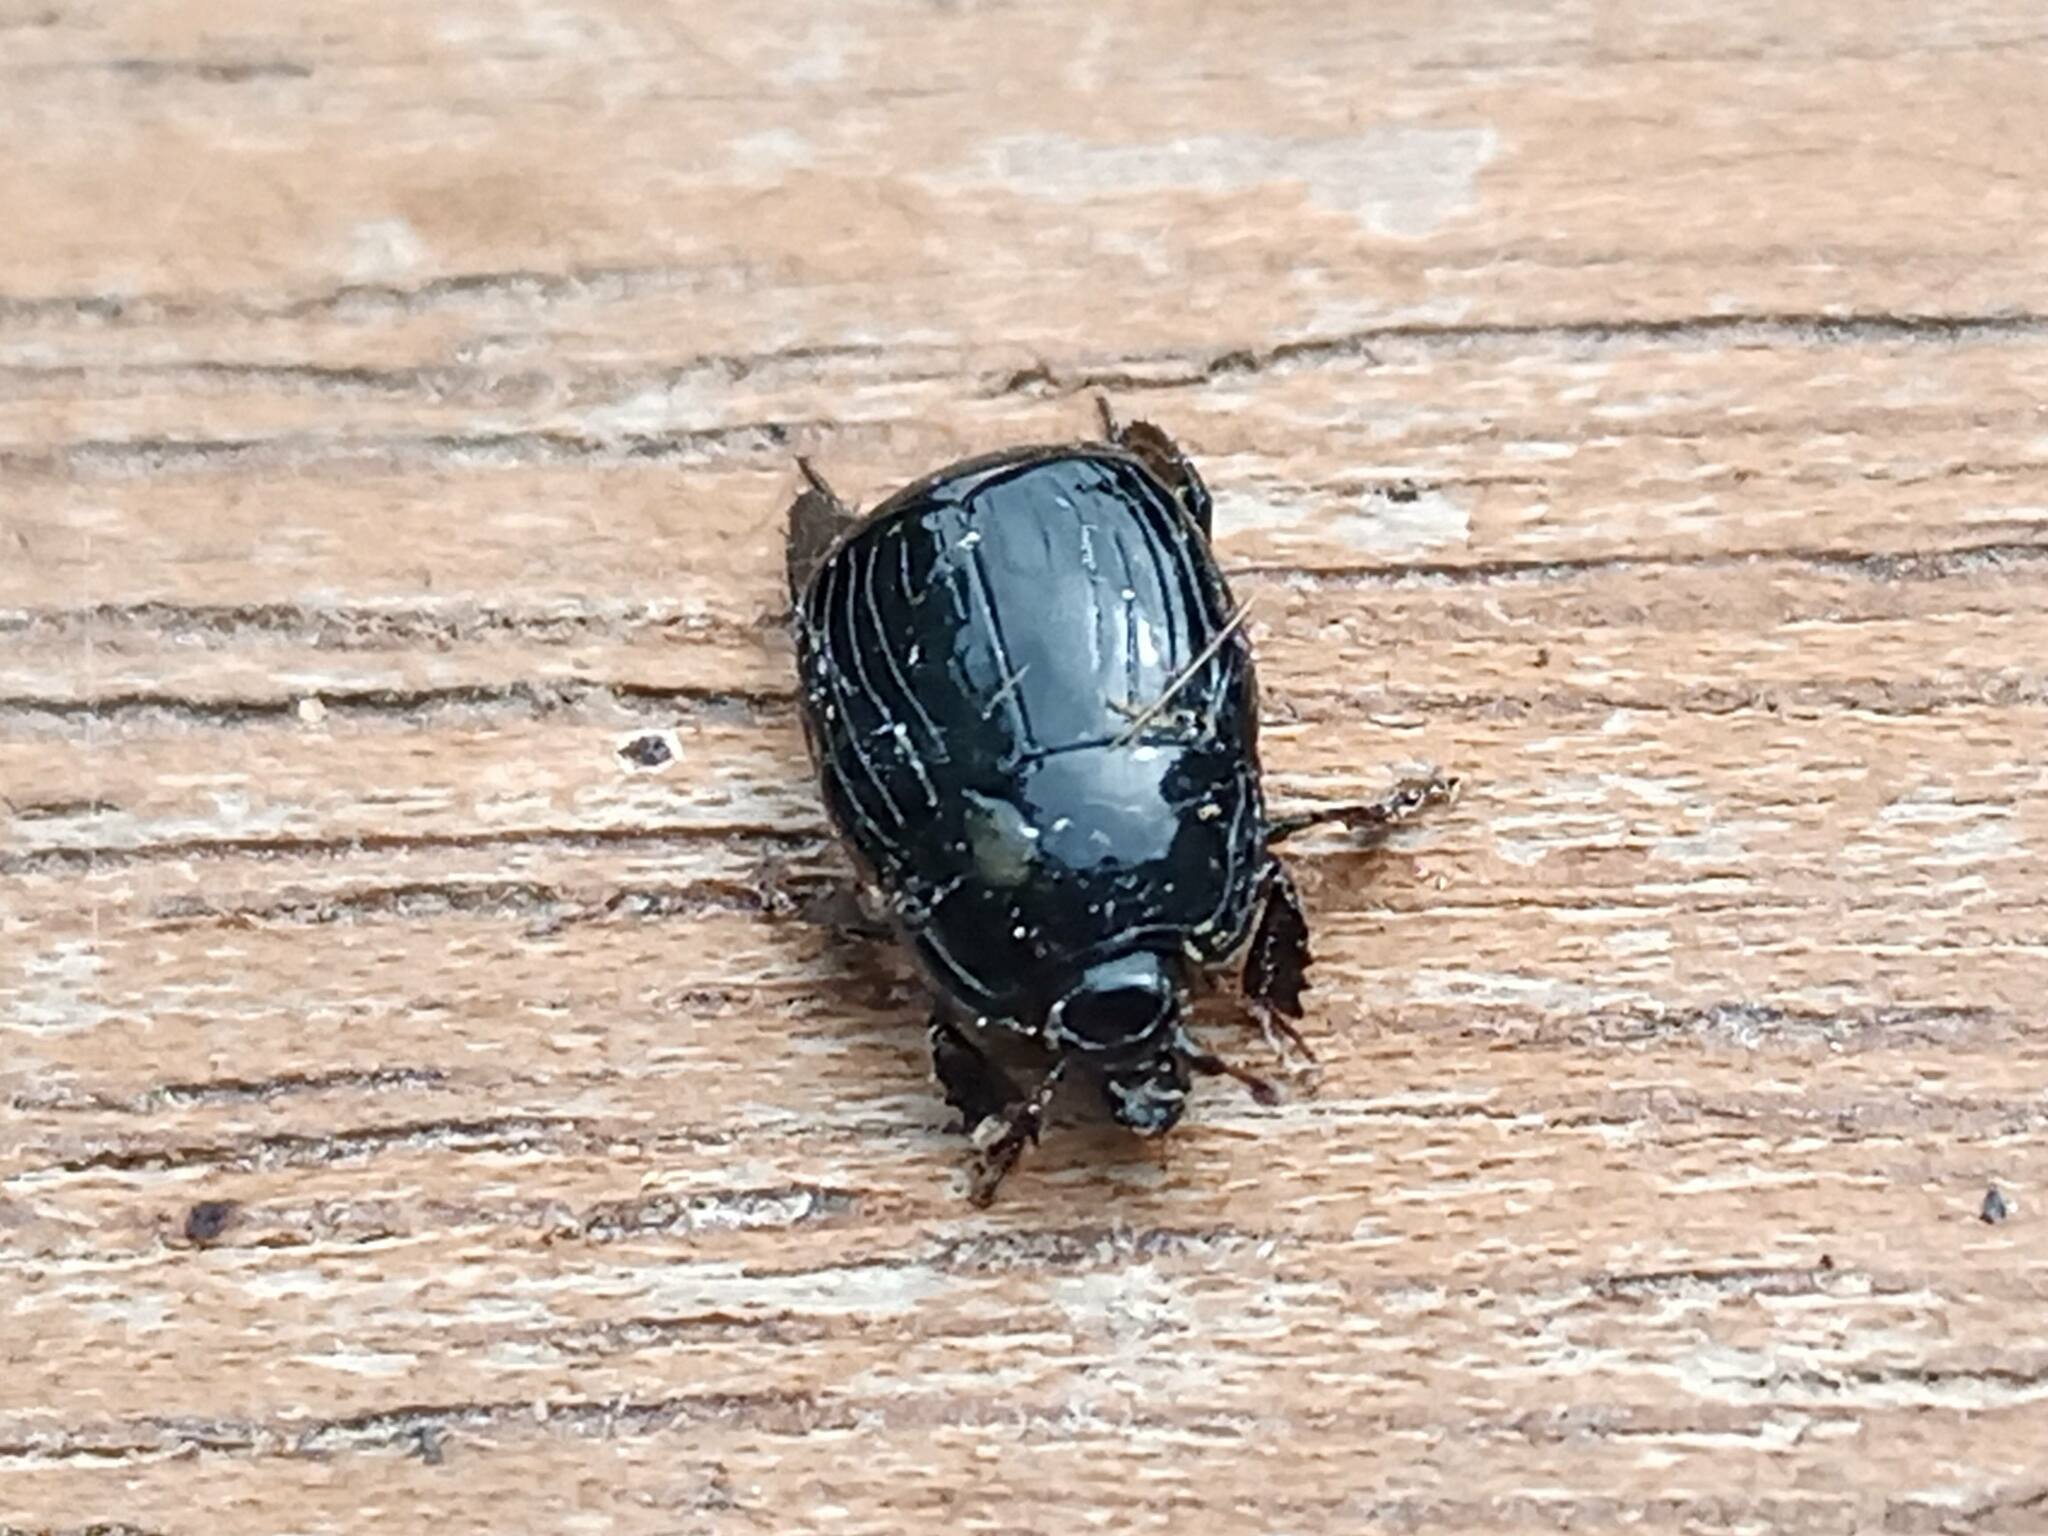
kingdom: Animalia
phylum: Arthropoda
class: Insecta
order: Coleoptera
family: Histeridae
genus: Margarinotus
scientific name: Margarinotus merdarius
